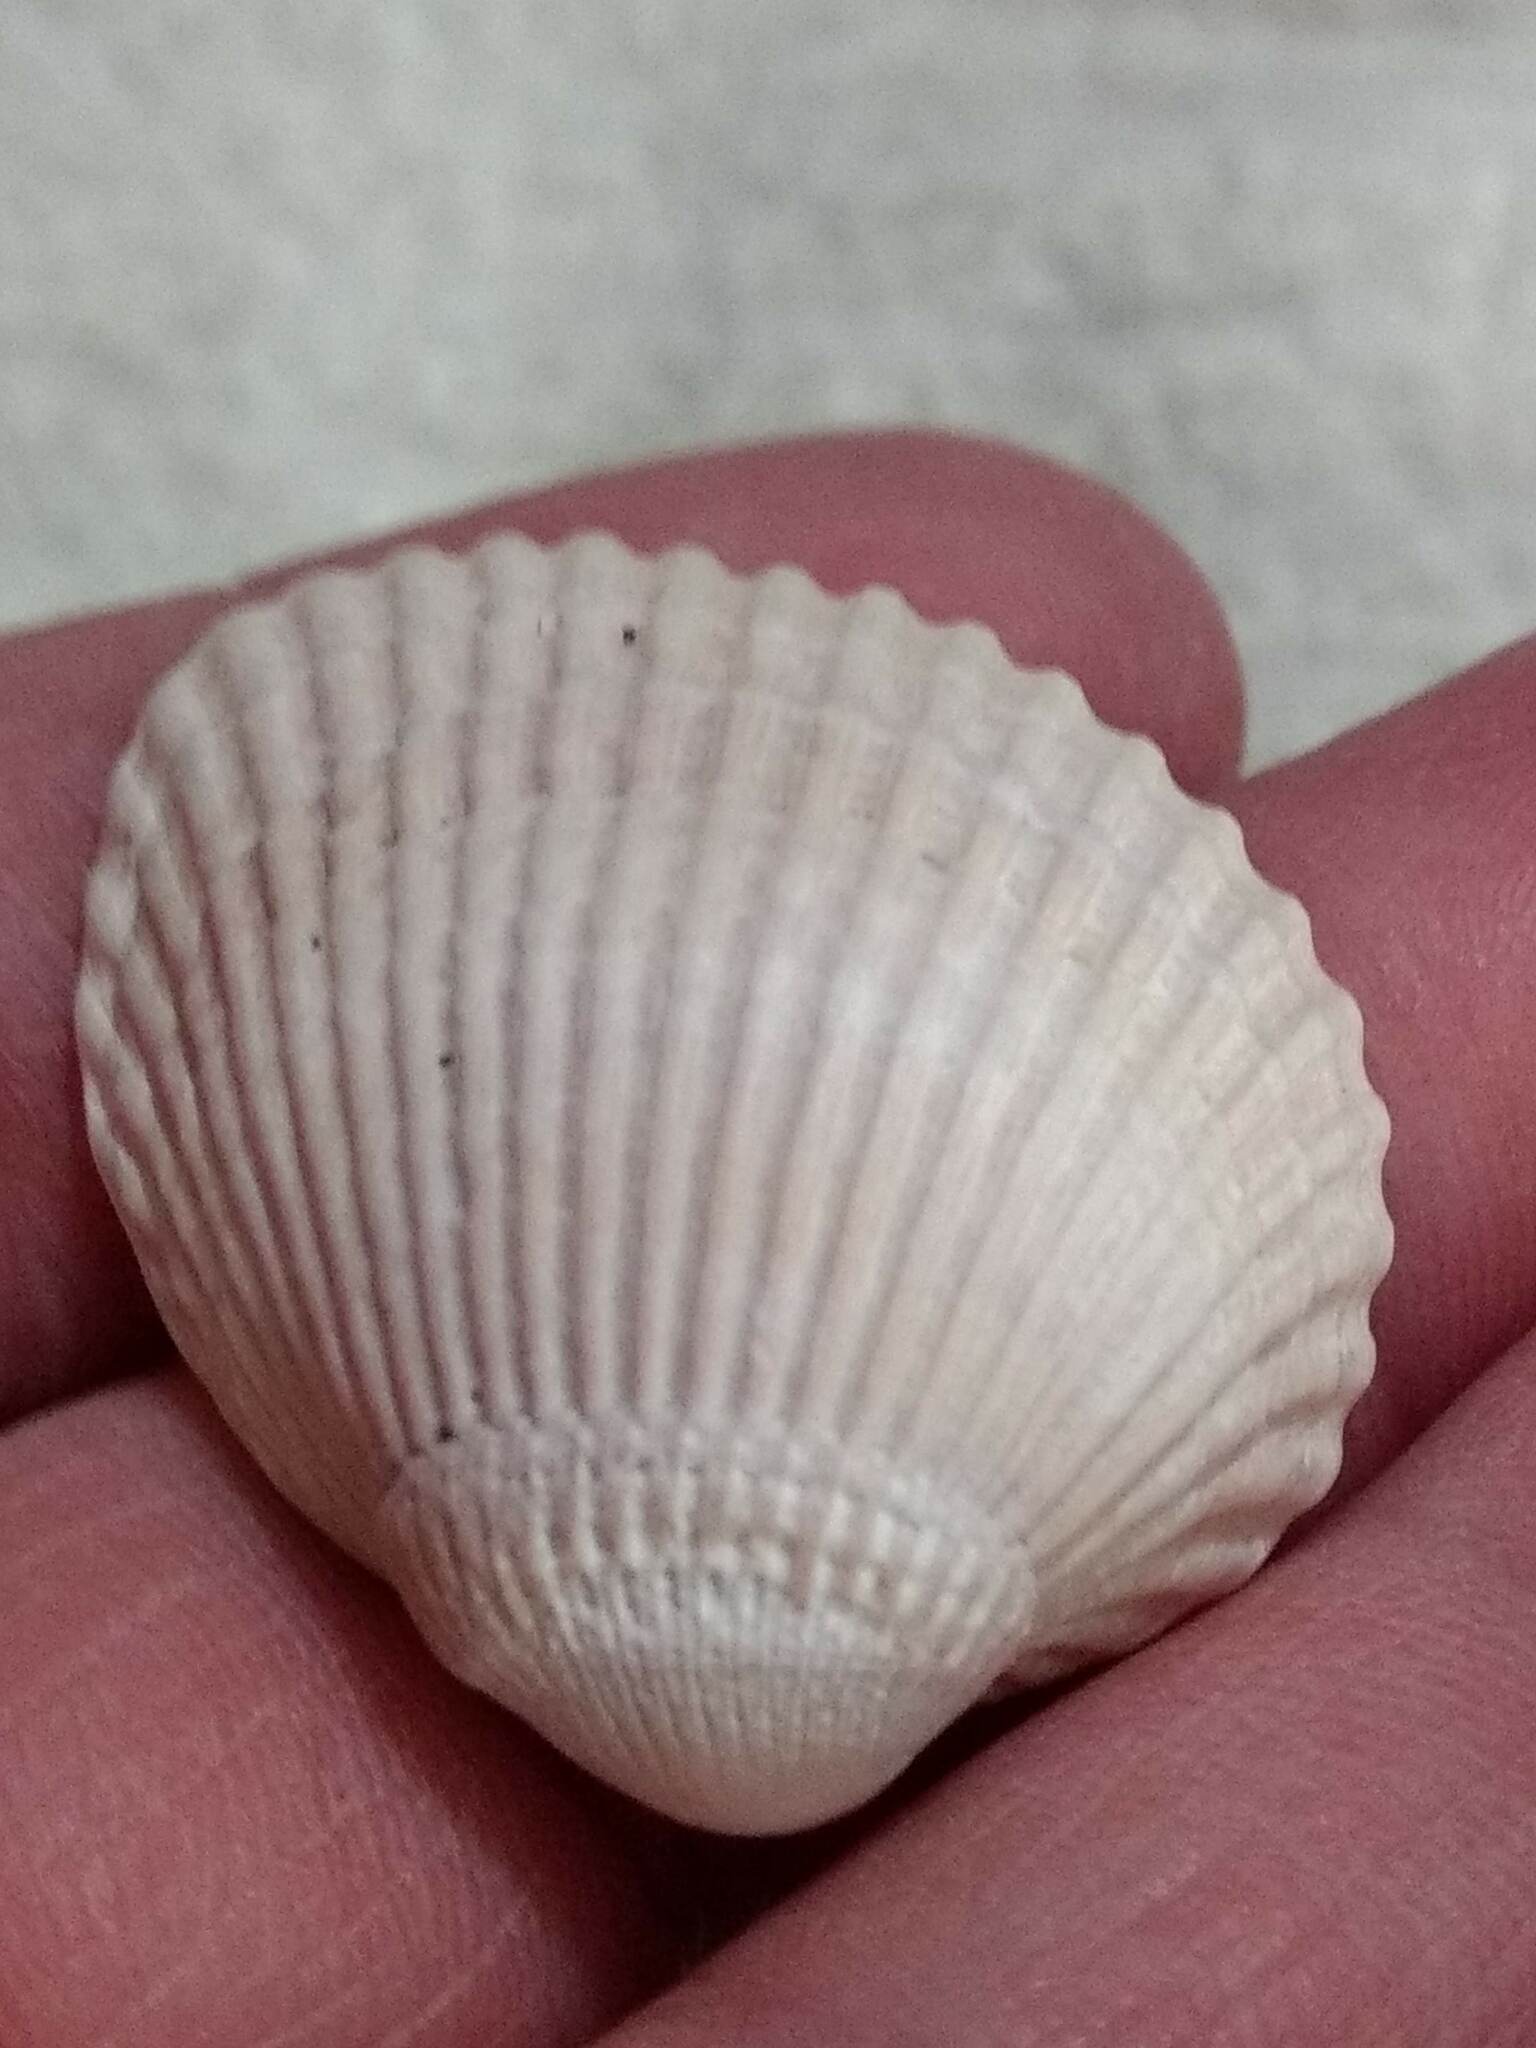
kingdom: Animalia
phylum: Mollusca
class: Bivalvia
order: Arcida
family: Arcidae
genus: Lunarca
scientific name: Lunarca ovalis
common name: Blood ark
